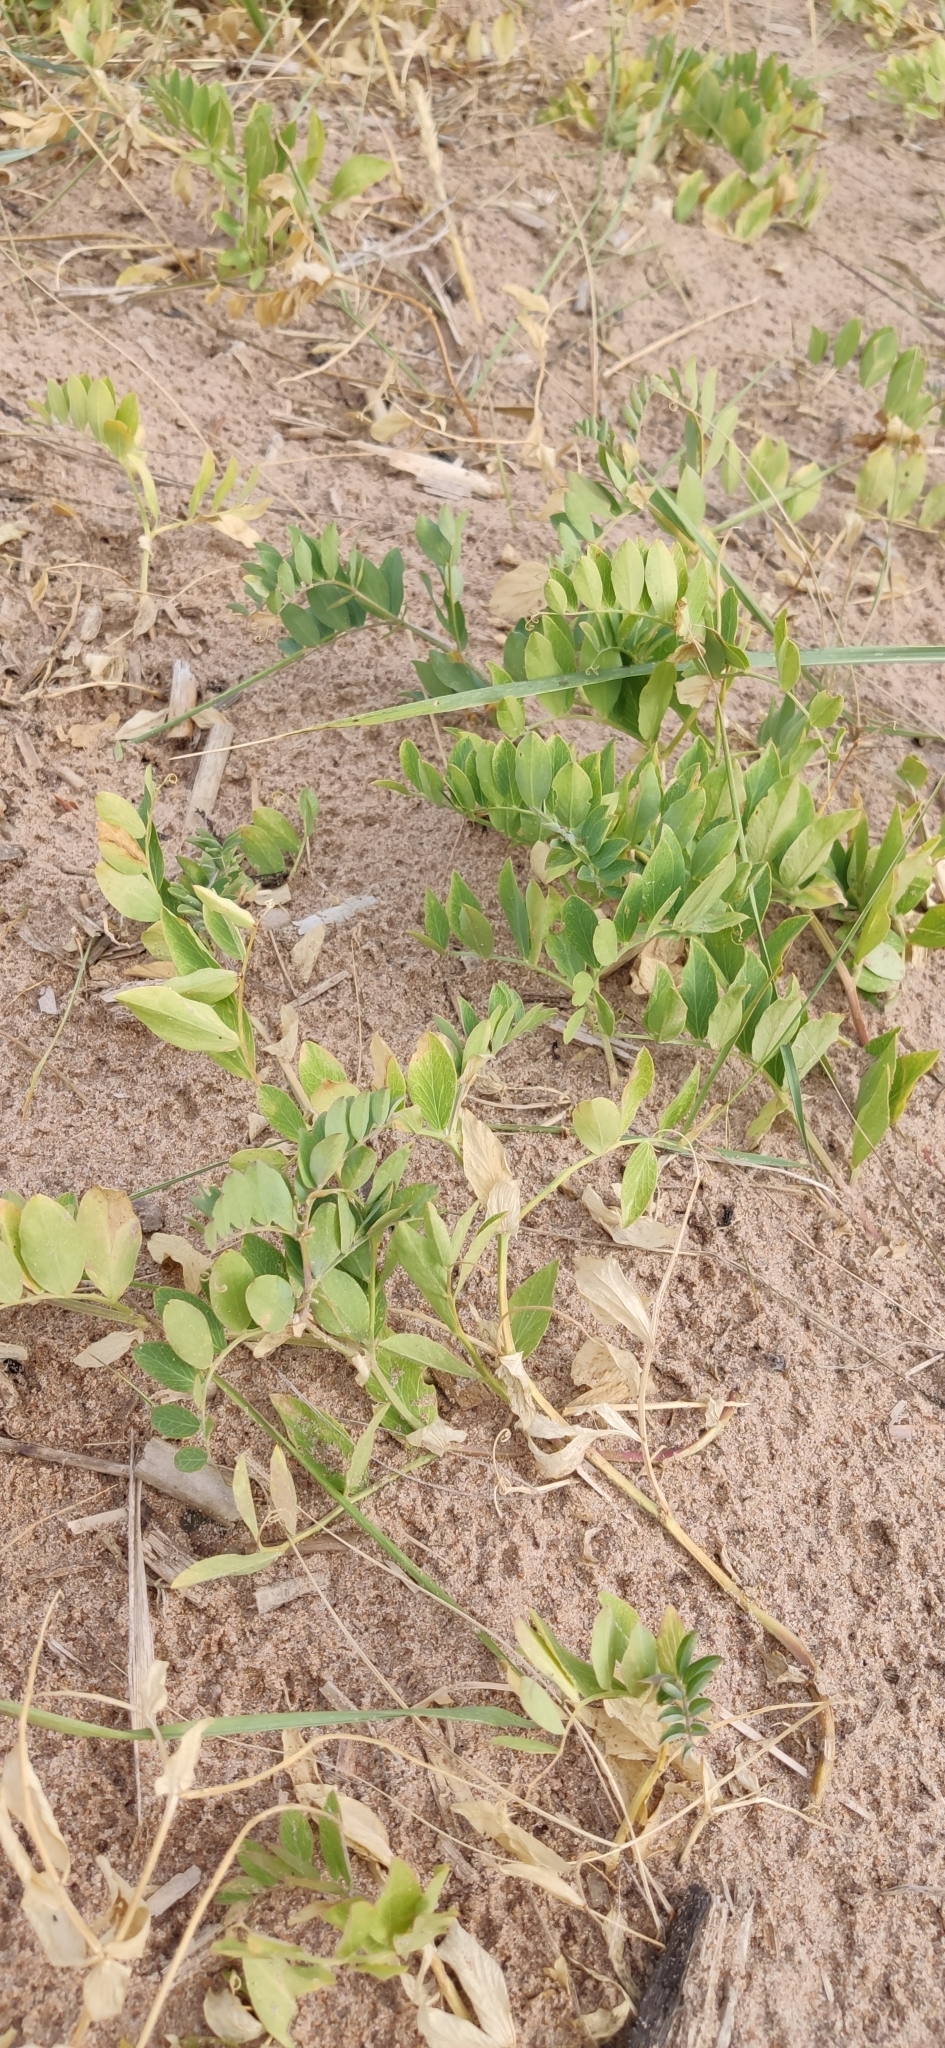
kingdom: Plantae
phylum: Tracheophyta
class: Magnoliopsida
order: Fabales
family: Fabaceae
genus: Lathyrus
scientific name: Lathyrus japonicus
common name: Sea pea
